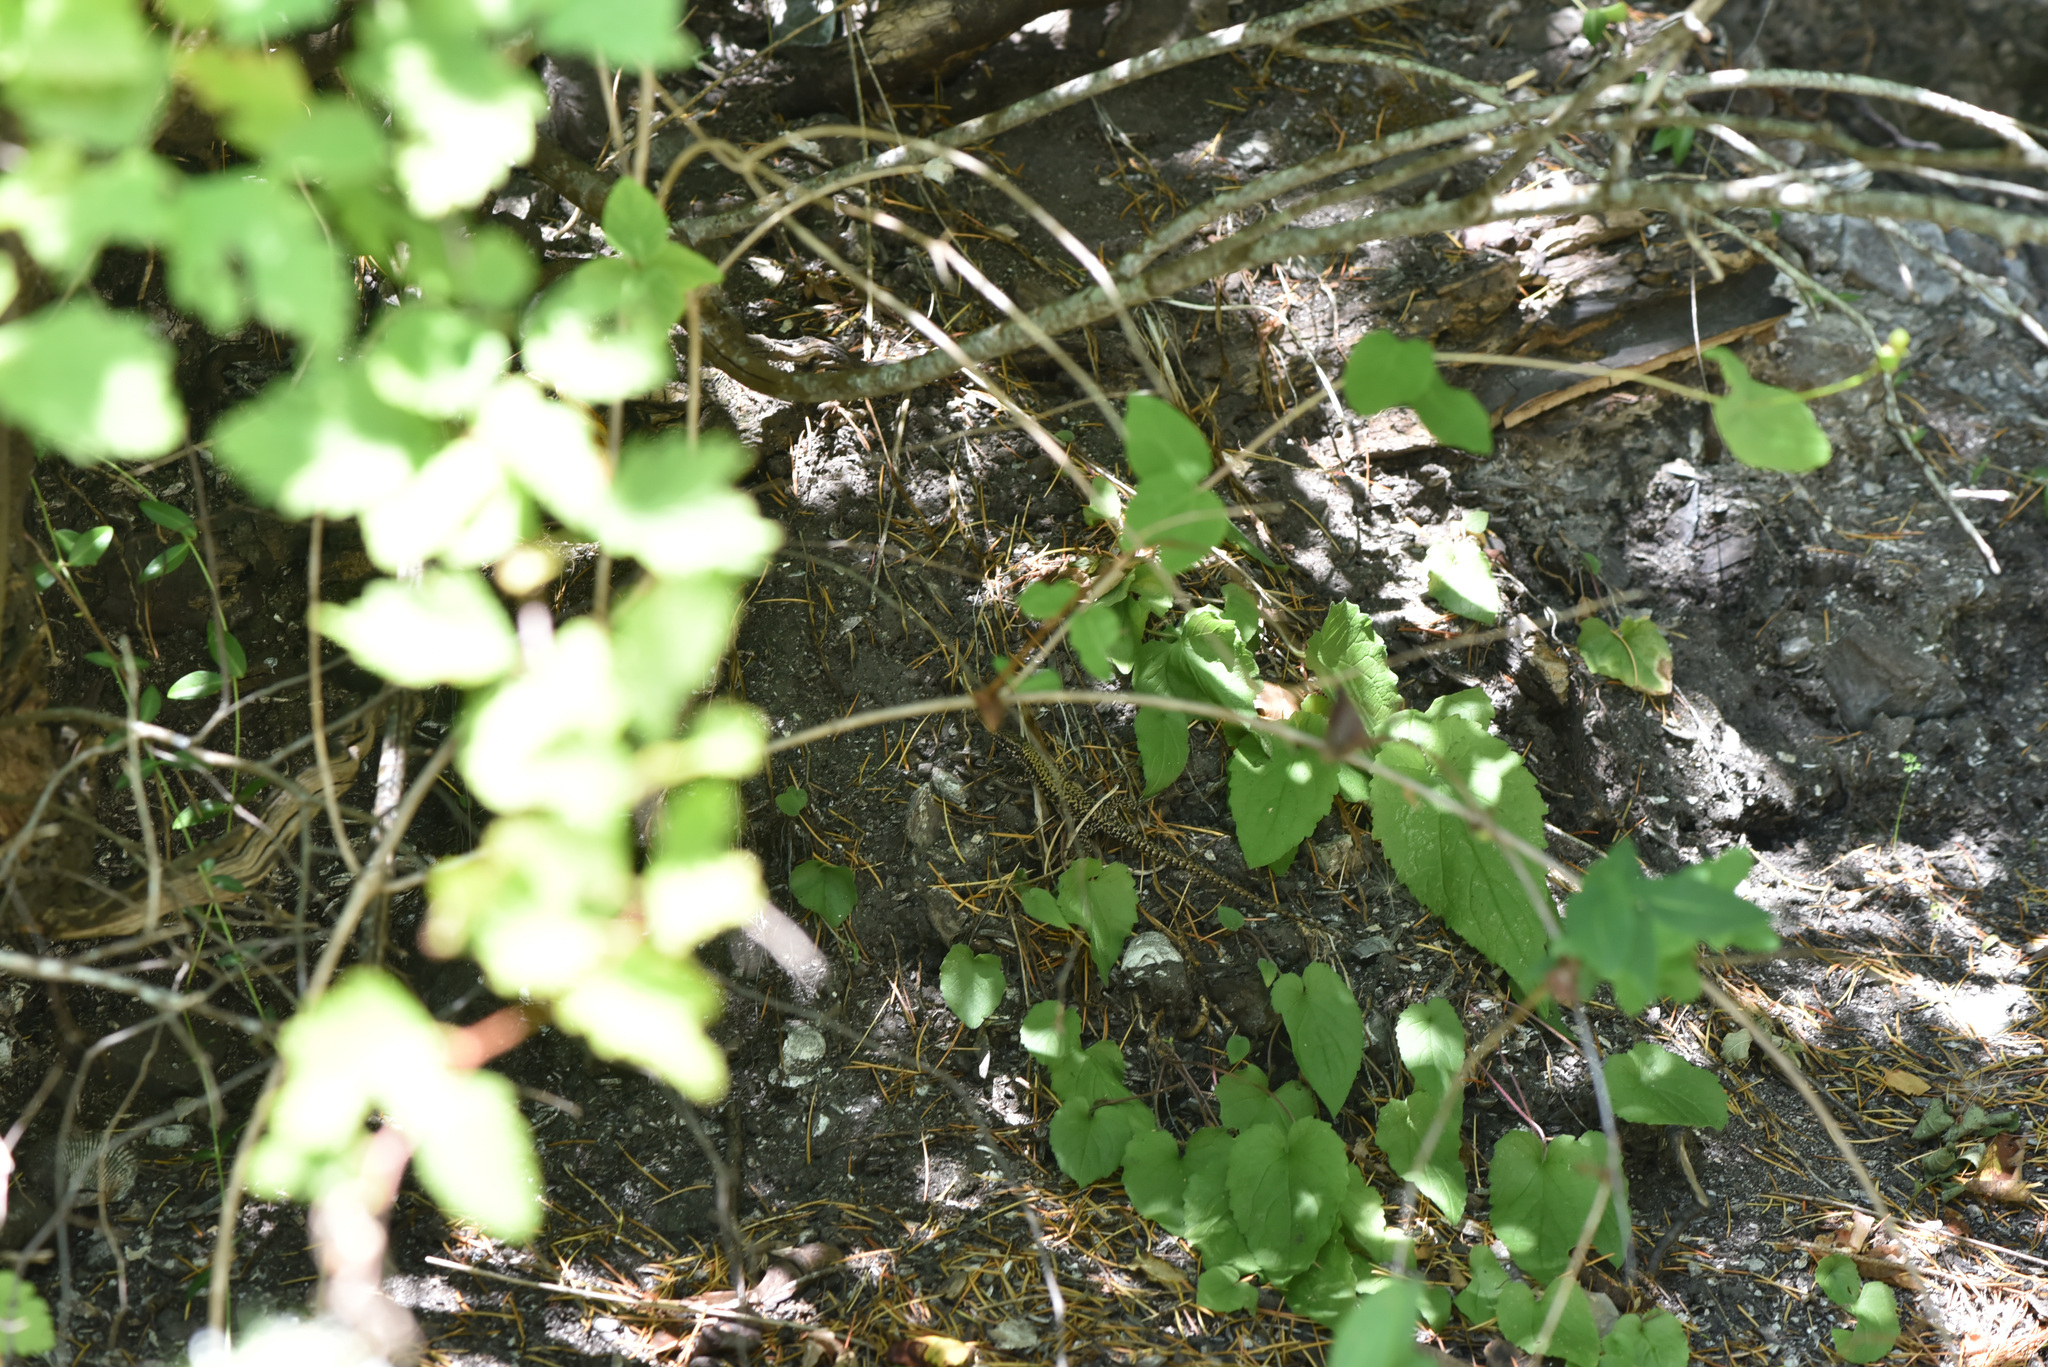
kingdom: Animalia
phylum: Chordata
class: Squamata
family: Lacertidae
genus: Podarcis
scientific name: Podarcis muralis
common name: Common wall lizard
